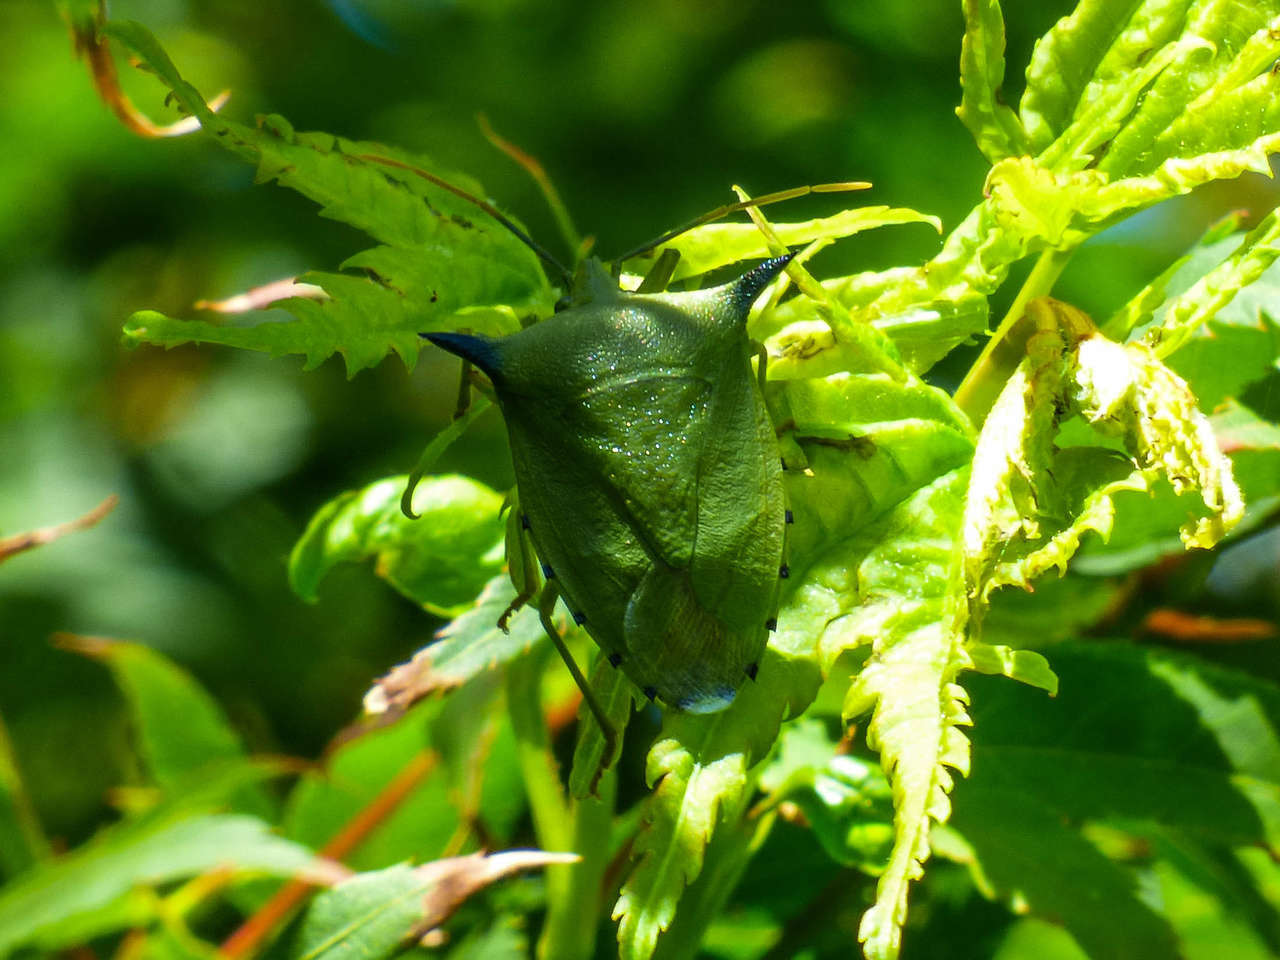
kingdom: Animalia
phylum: Arthropoda
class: Insecta
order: Hemiptera
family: Pentatomidae
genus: Biprorulus
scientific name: Biprorulus
